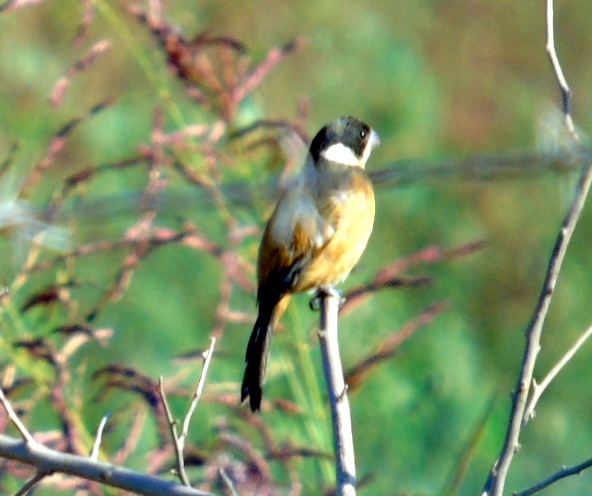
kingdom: Animalia
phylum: Chordata
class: Aves
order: Passeriformes
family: Thraupidae
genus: Sporophila
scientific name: Sporophila torqueola
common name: White-collared seedeater
